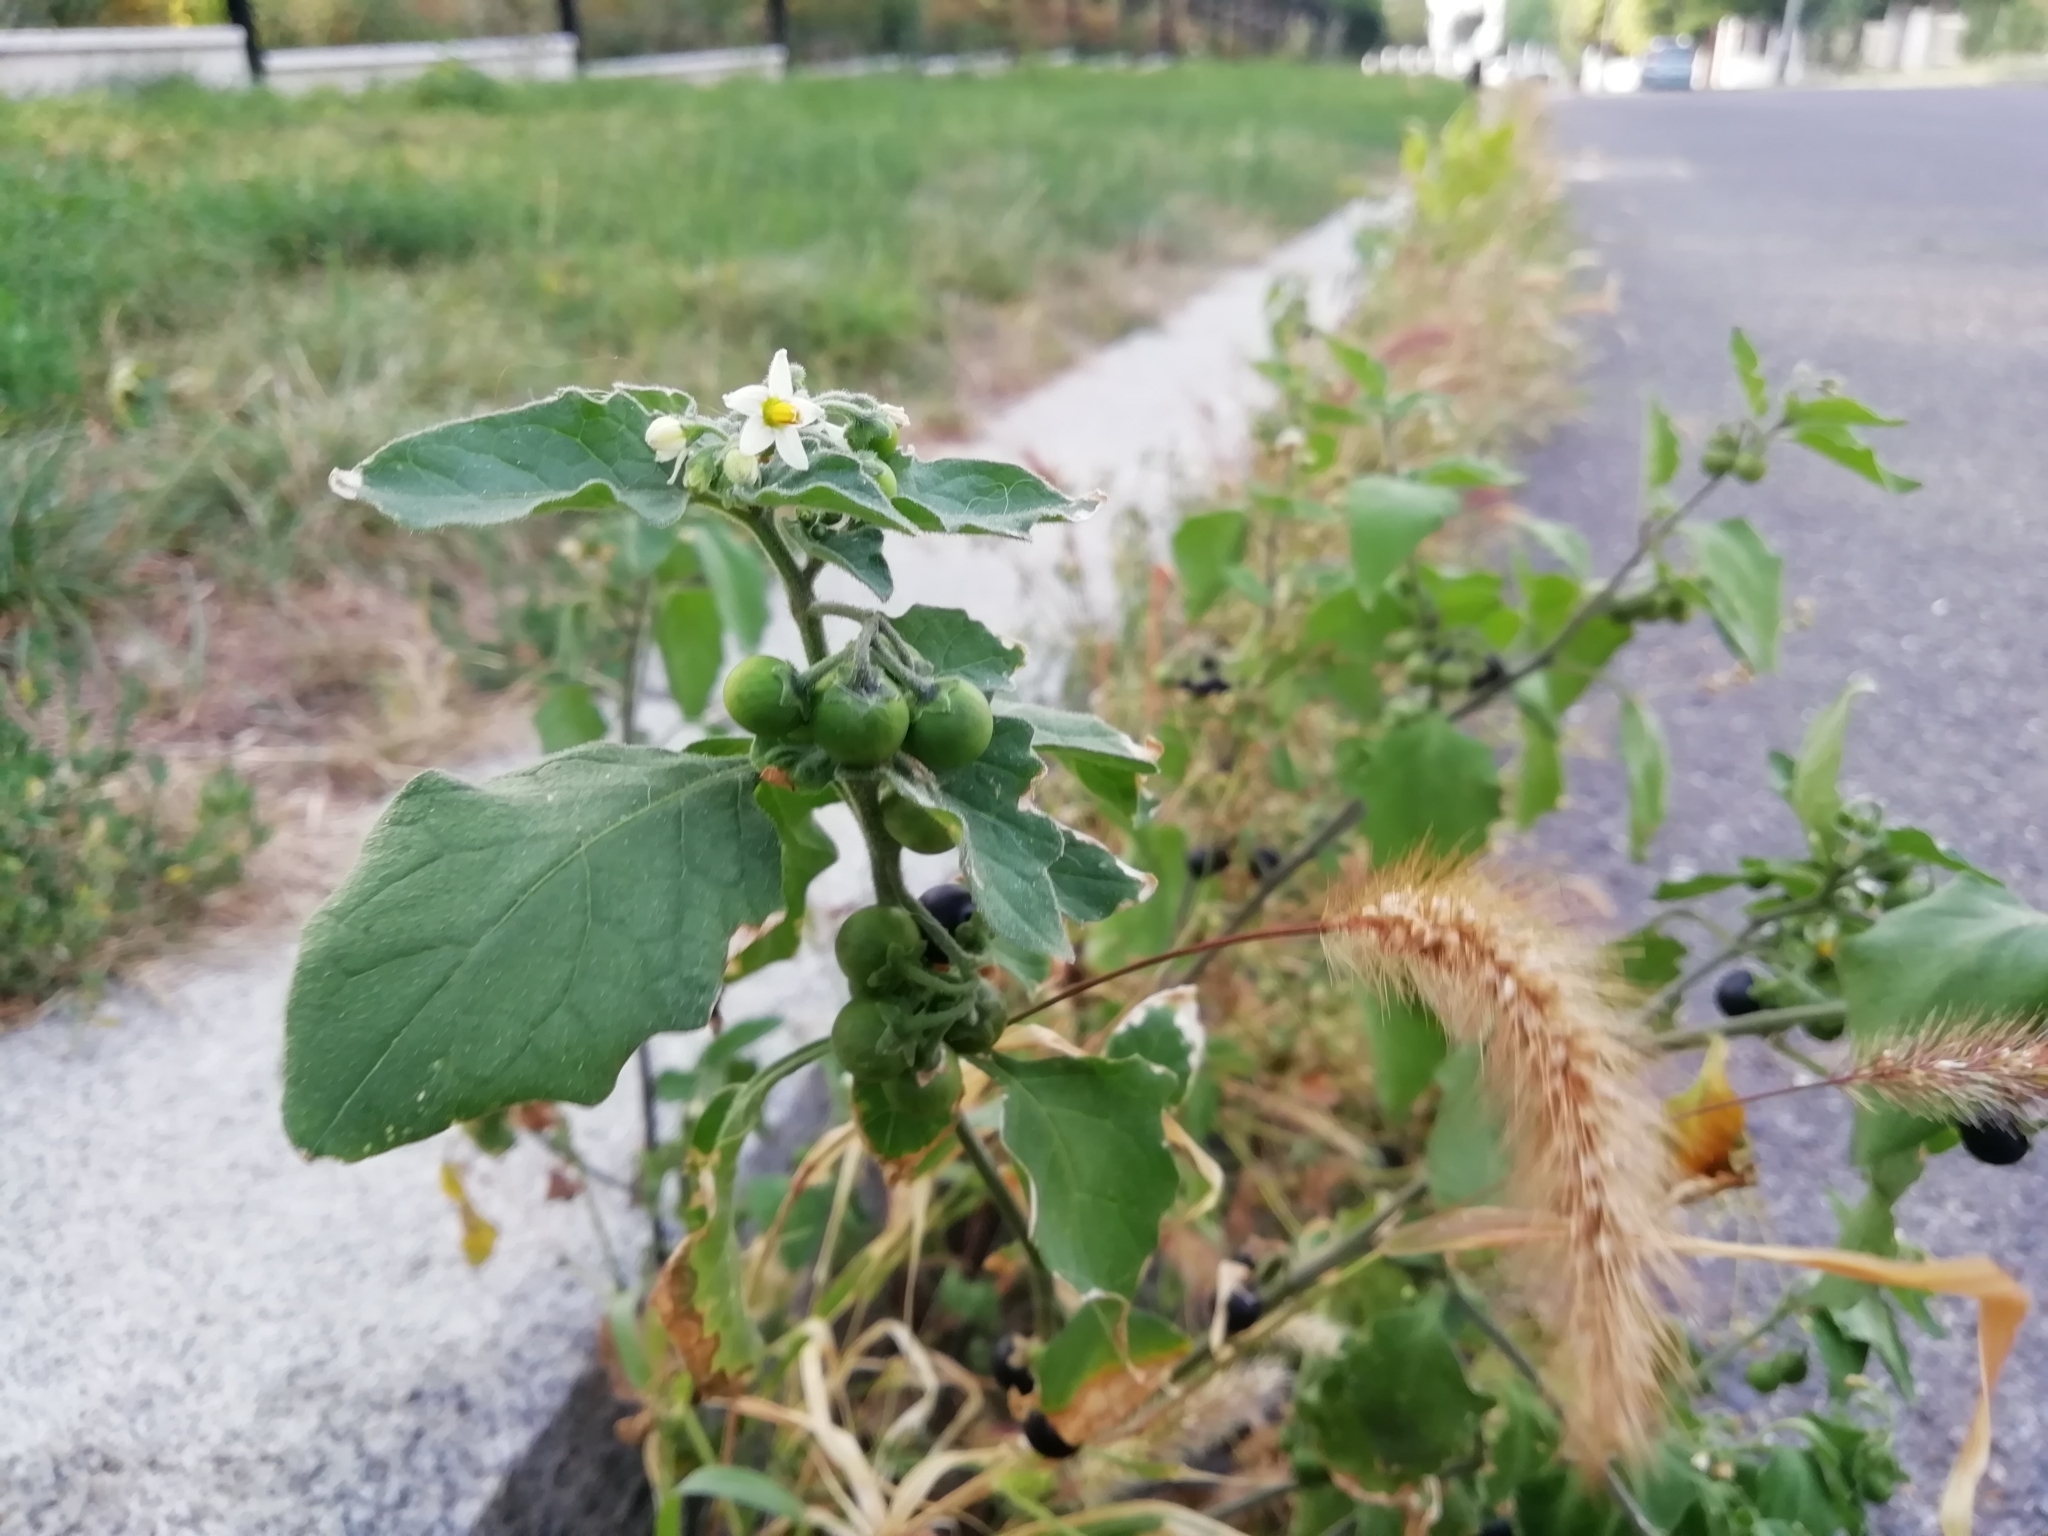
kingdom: Plantae
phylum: Tracheophyta
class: Magnoliopsida
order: Solanales
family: Solanaceae
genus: Solanum
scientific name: Solanum nigrum
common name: Black nightshade
